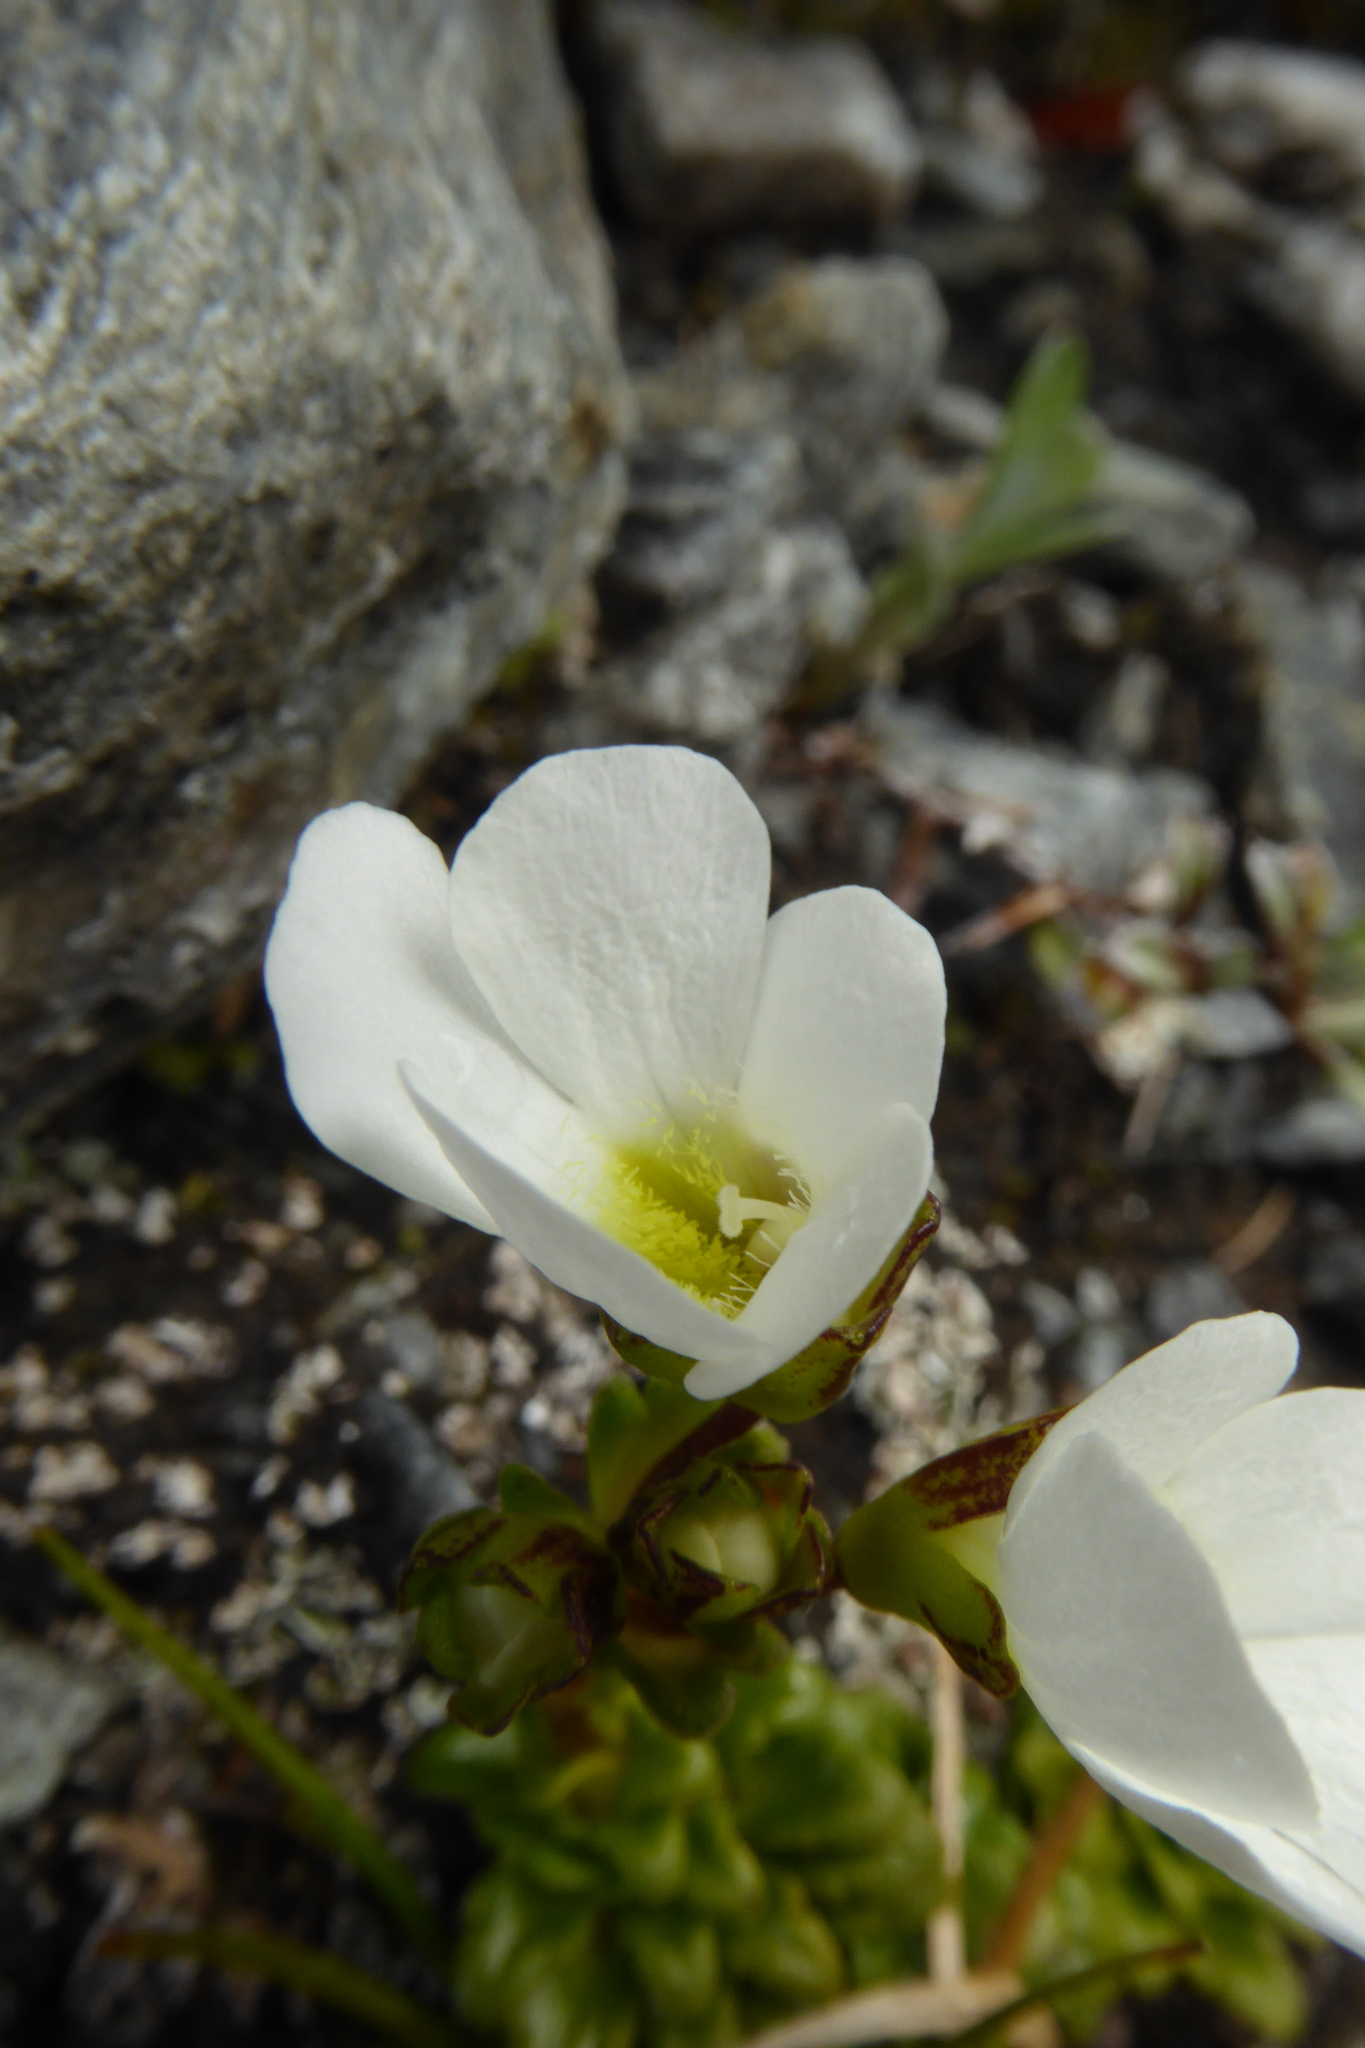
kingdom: Plantae
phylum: Tracheophyta
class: Magnoliopsida
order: Lamiales
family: Plantaginaceae
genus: Ourisia
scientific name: Ourisia caespitosa
